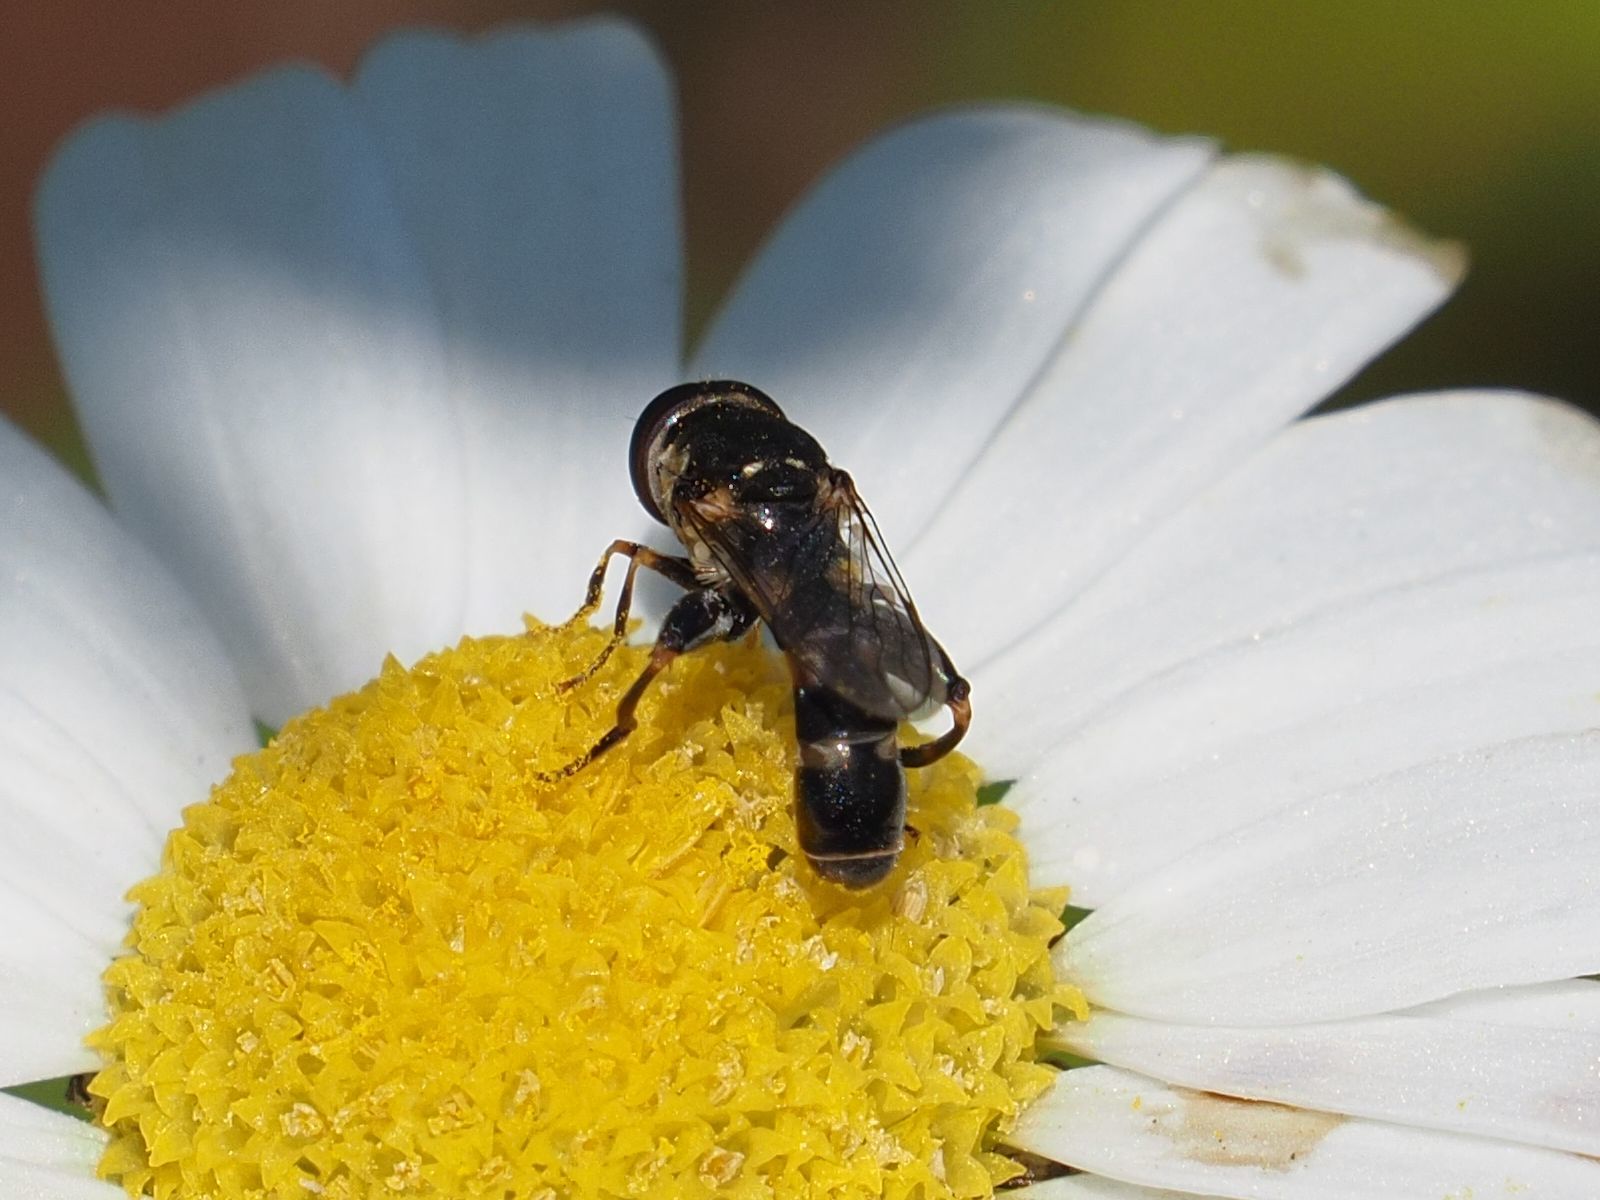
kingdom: Animalia
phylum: Arthropoda
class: Insecta
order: Diptera
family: Syrphidae
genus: Syritta
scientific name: Syritta pipiens
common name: Hover fly
